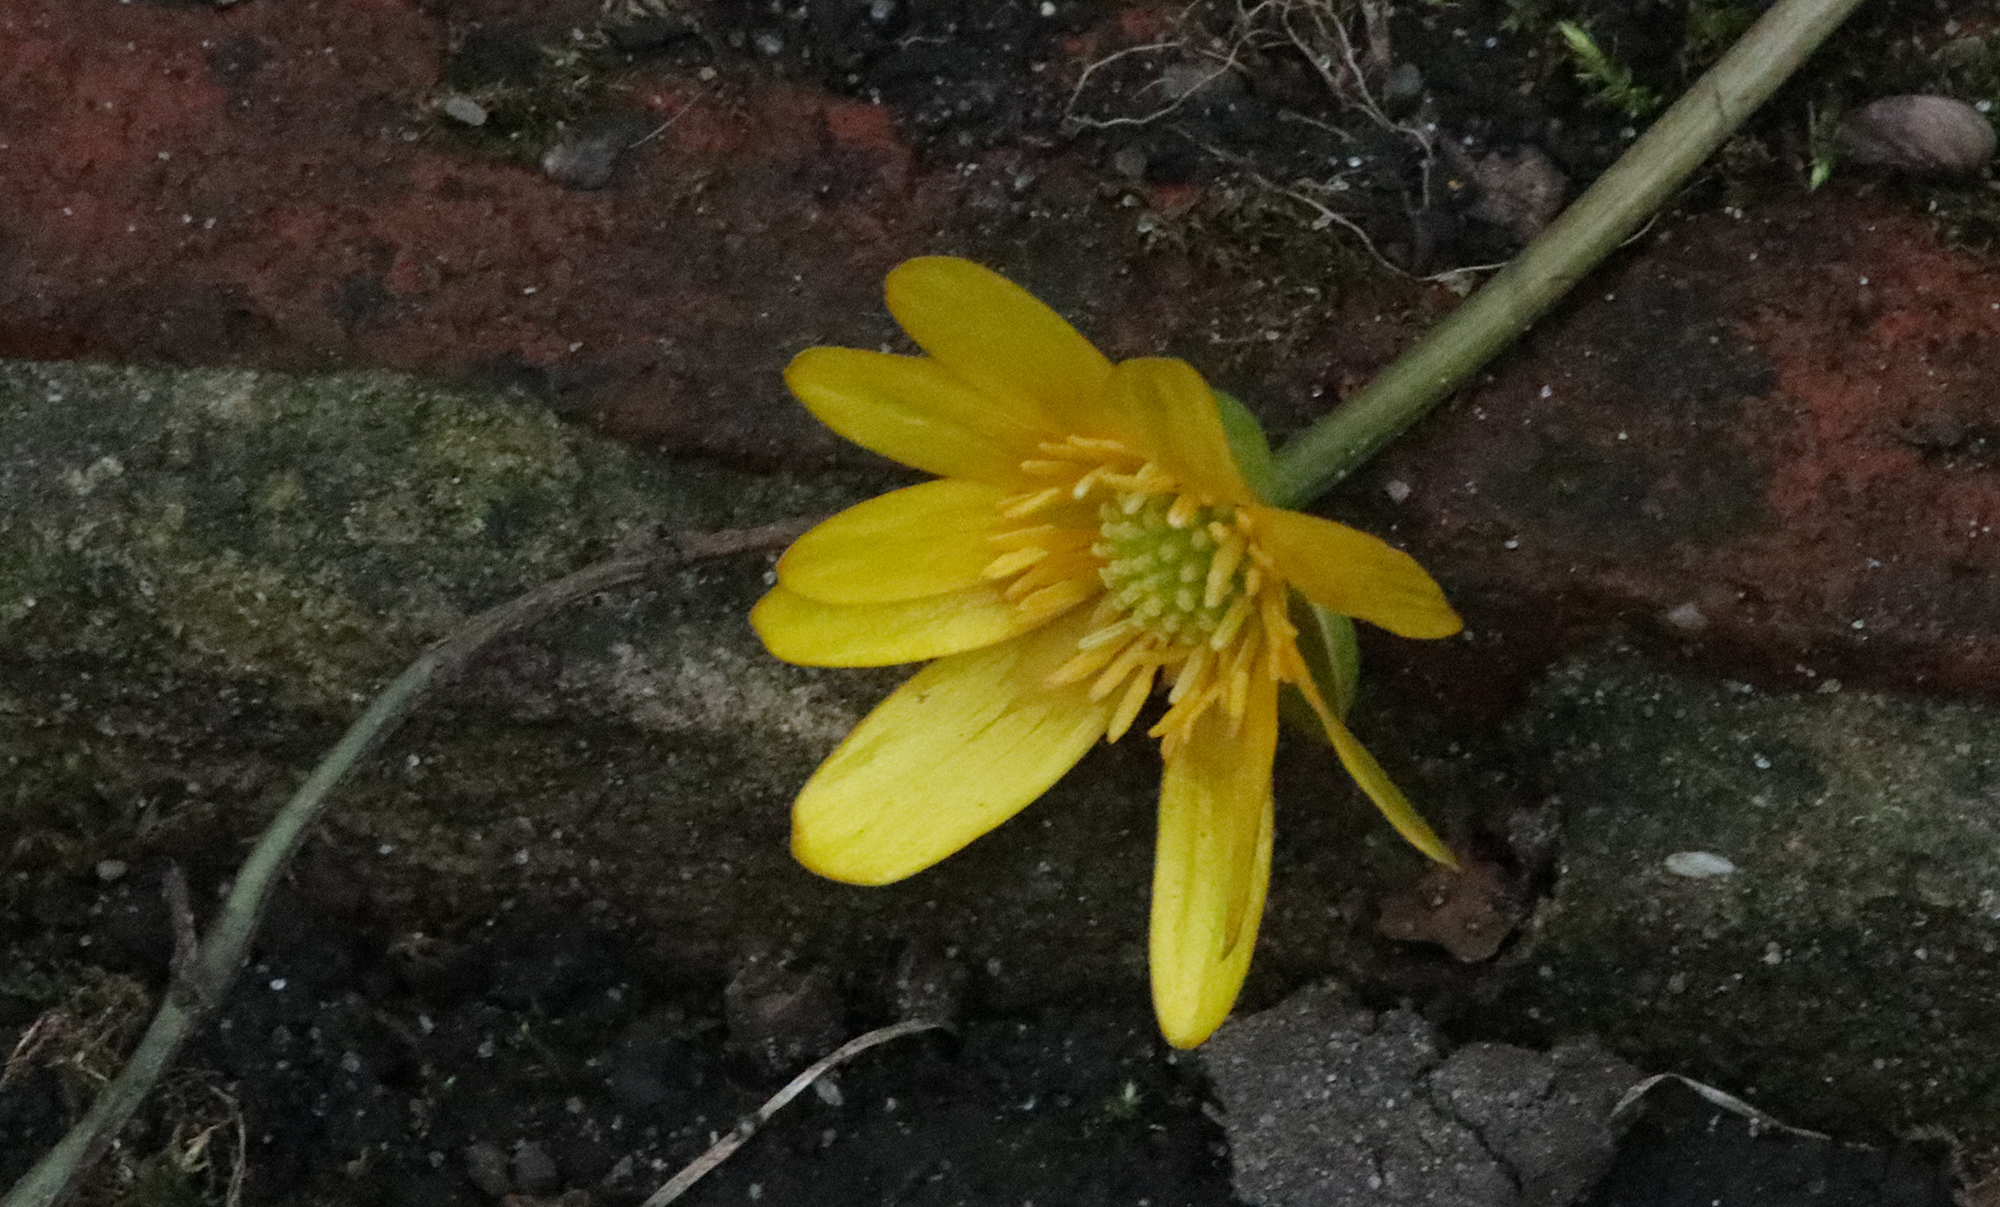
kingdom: Plantae
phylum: Tracheophyta
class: Magnoliopsida
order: Ranunculales
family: Ranunculaceae
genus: Ficaria
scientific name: Ficaria verna
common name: Lesser celandine
